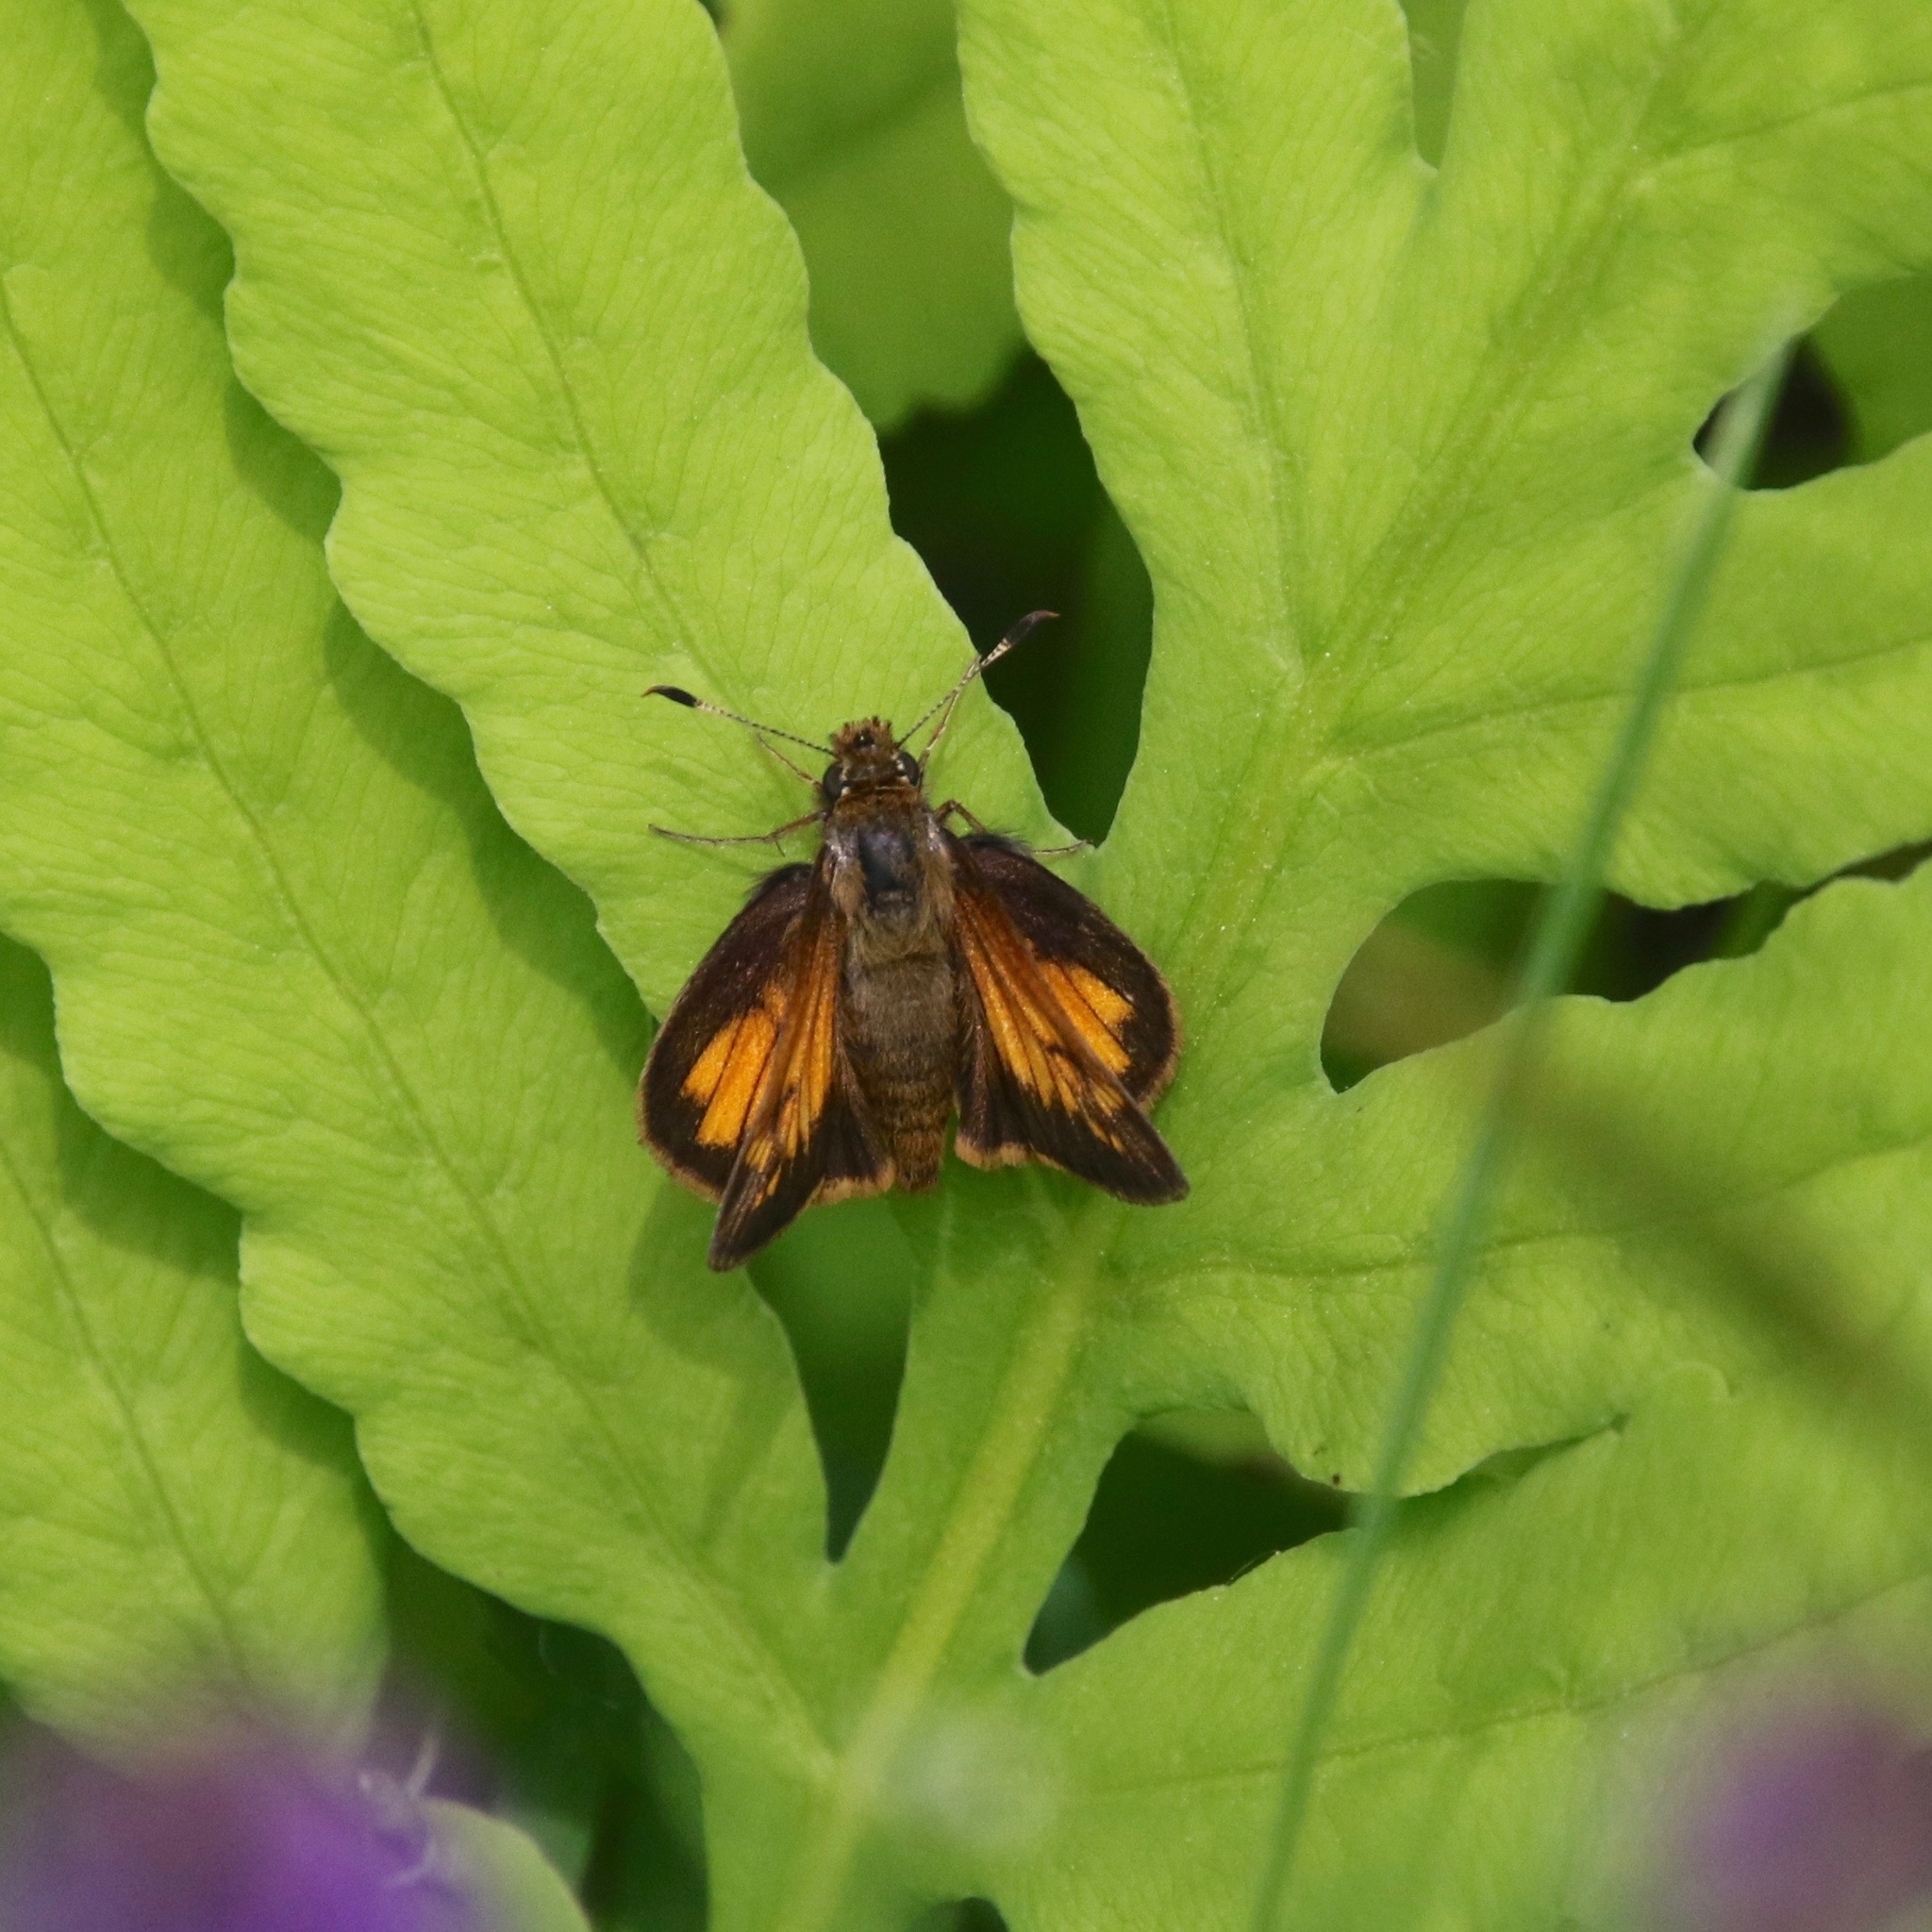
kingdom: Animalia
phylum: Arthropoda
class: Insecta
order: Lepidoptera
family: Hesperiidae
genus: Lon
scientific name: Lon hobomok
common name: Hobomok skipper
